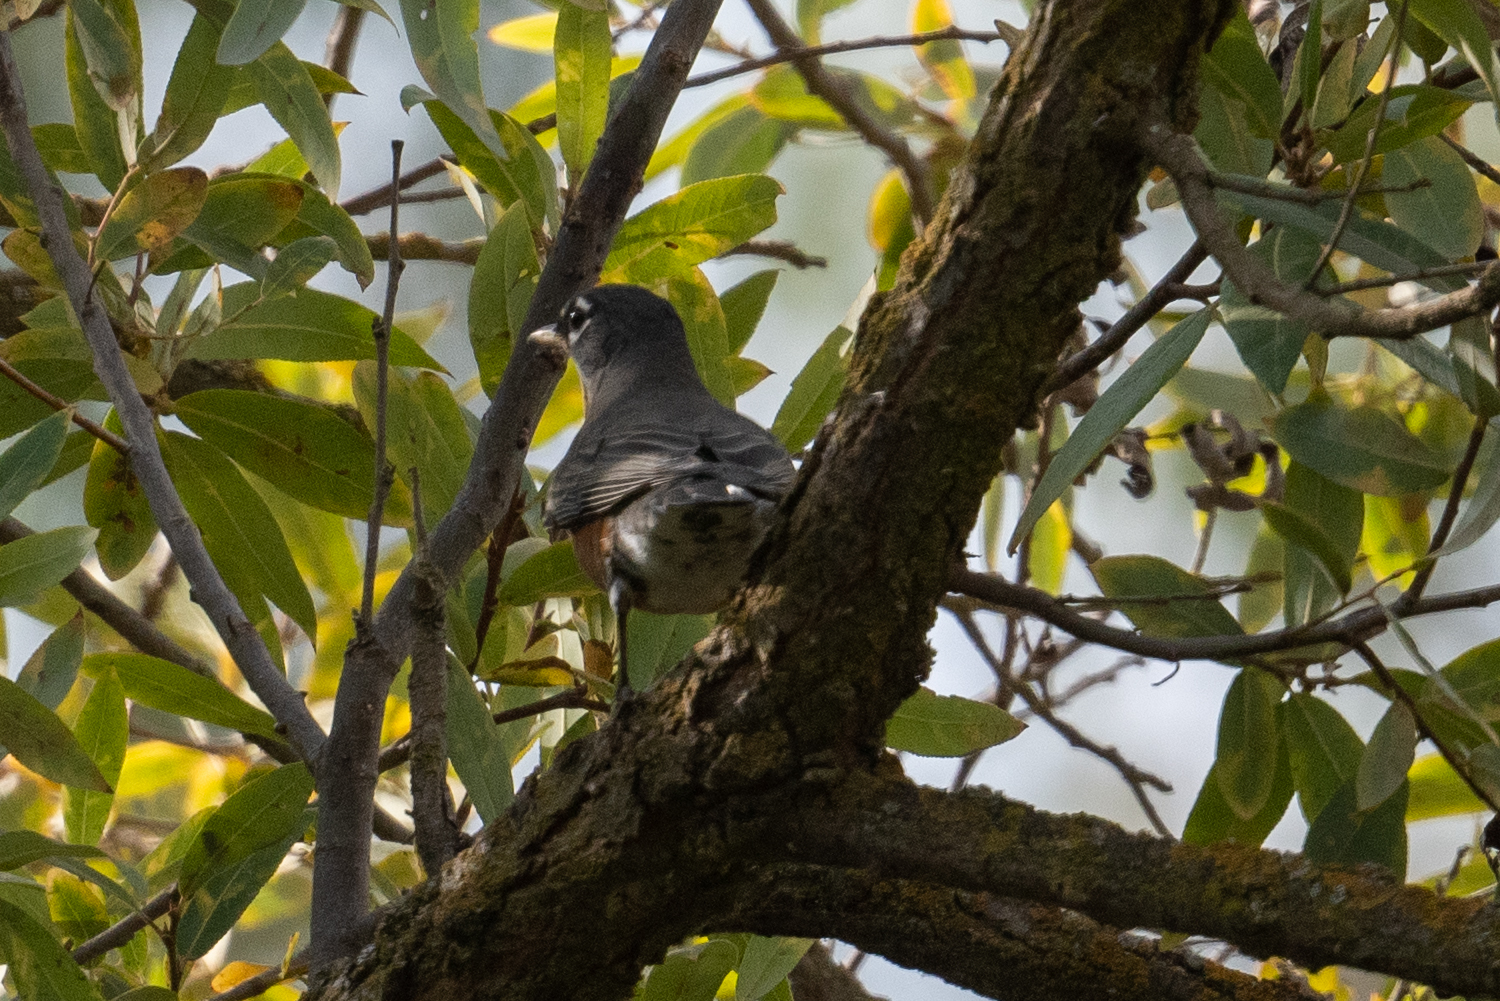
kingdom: Animalia
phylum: Chordata
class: Aves
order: Passeriformes
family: Turdidae
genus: Turdus
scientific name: Turdus migratorius
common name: American robin
